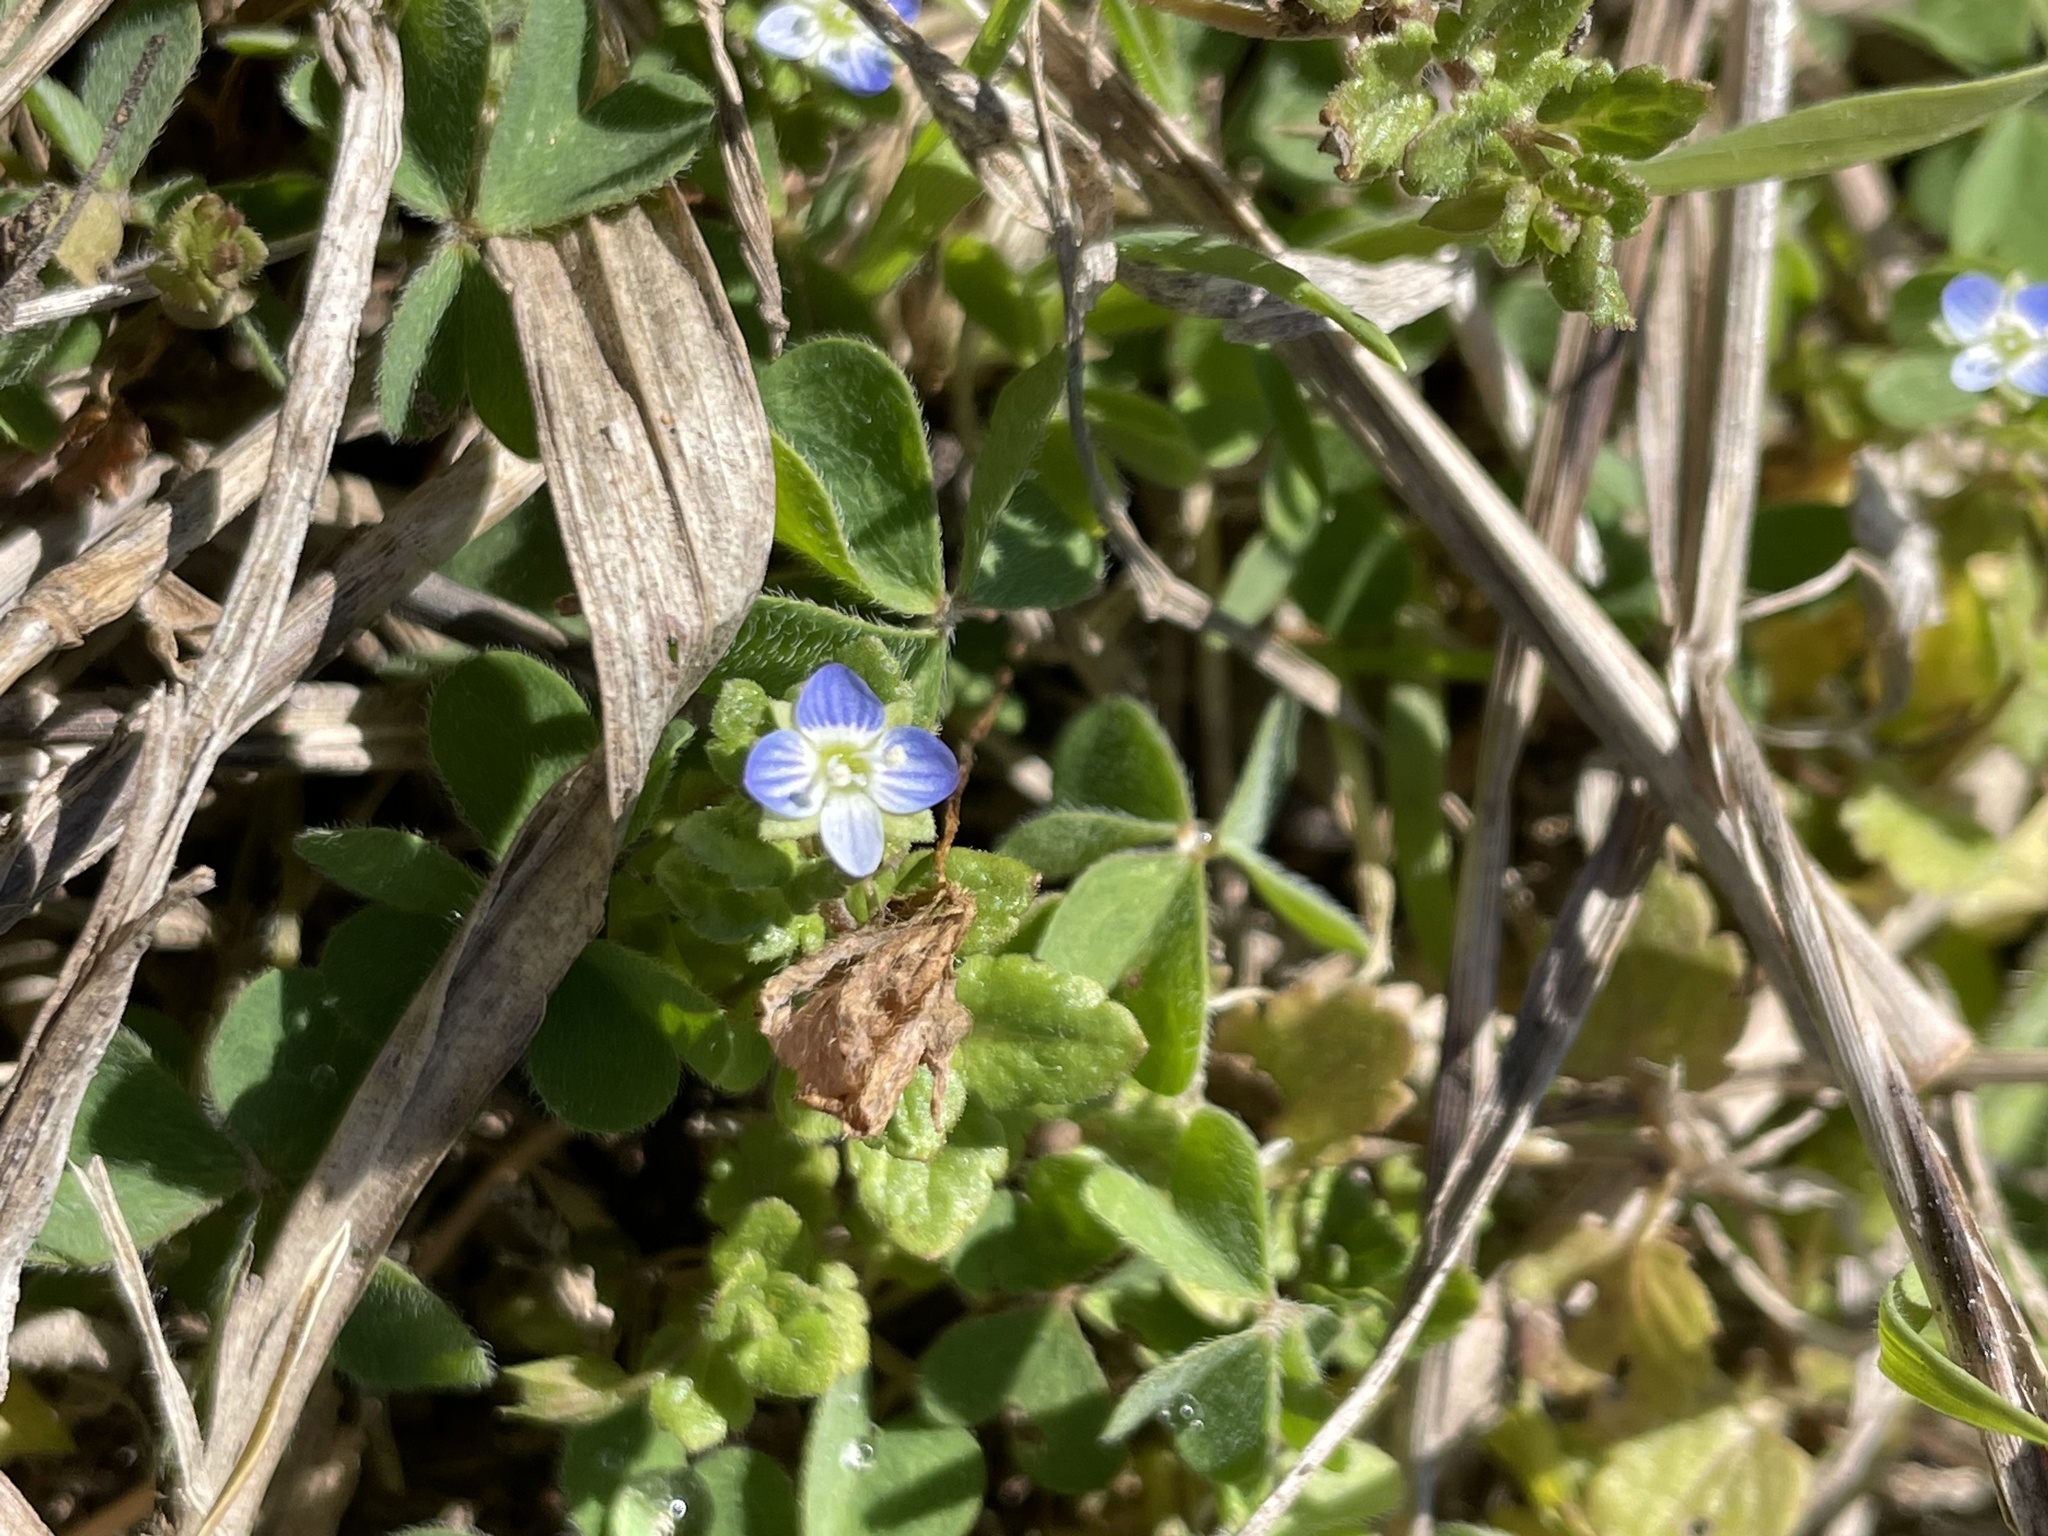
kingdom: Plantae
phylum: Tracheophyta
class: Magnoliopsida
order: Lamiales
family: Plantaginaceae
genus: Veronica
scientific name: Veronica persica
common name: Common field-speedwell
